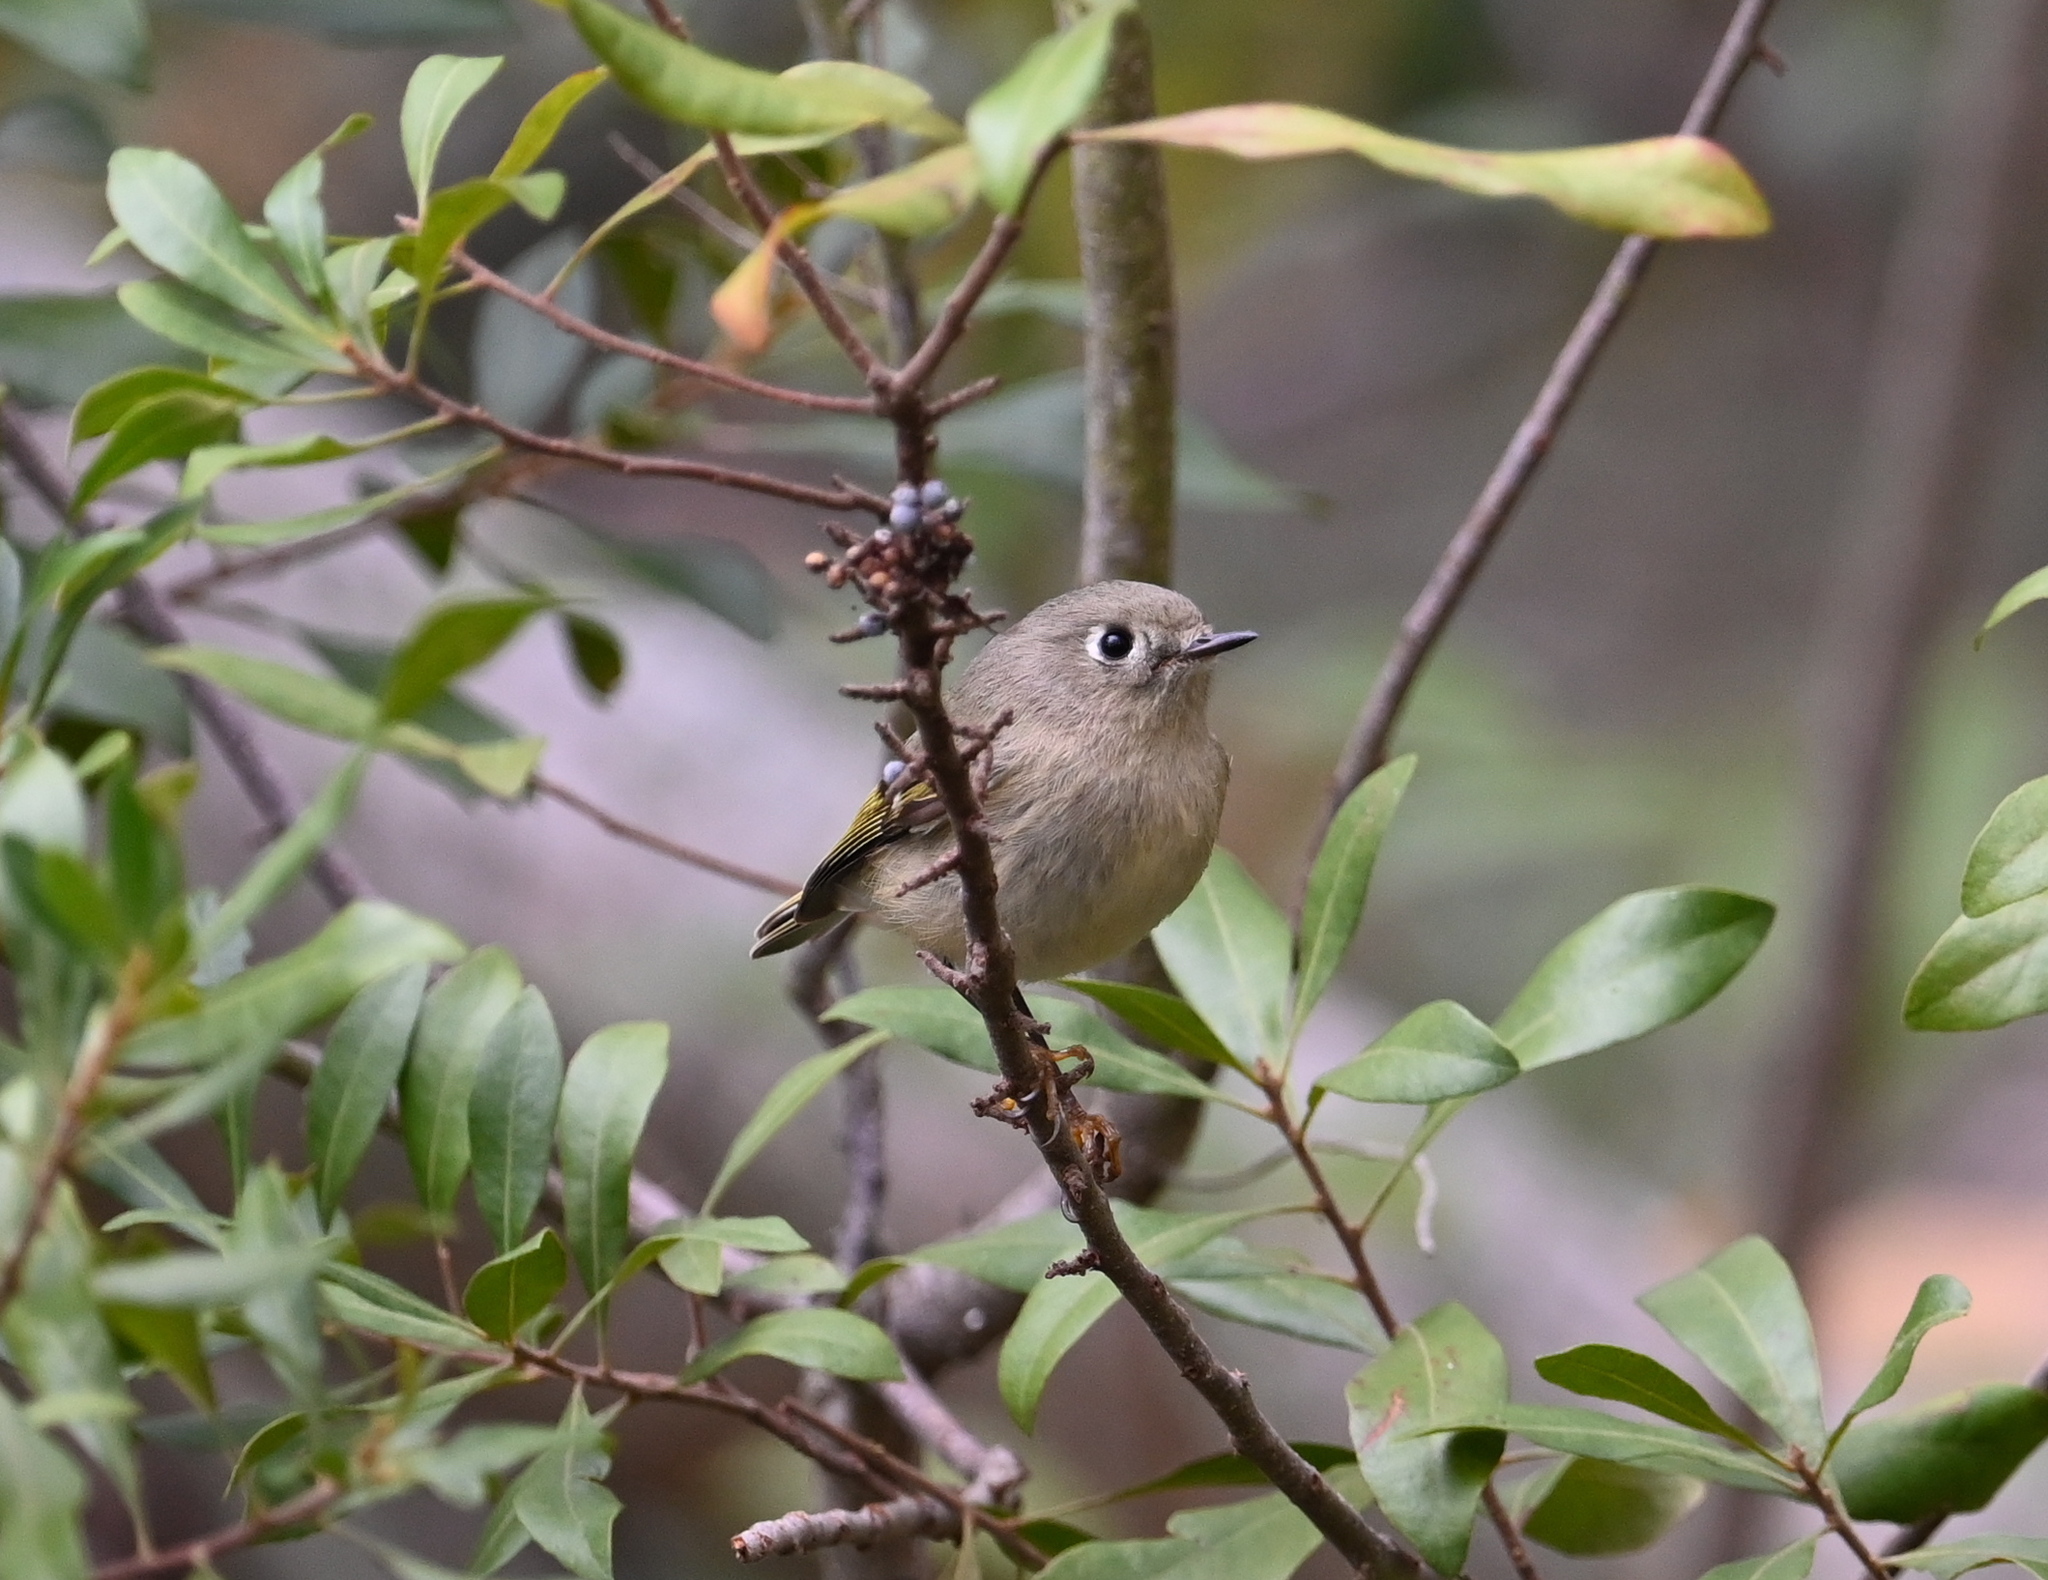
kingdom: Animalia
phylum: Chordata
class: Aves
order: Passeriformes
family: Regulidae
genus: Regulus
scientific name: Regulus calendula
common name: Ruby-crowned kinglet
